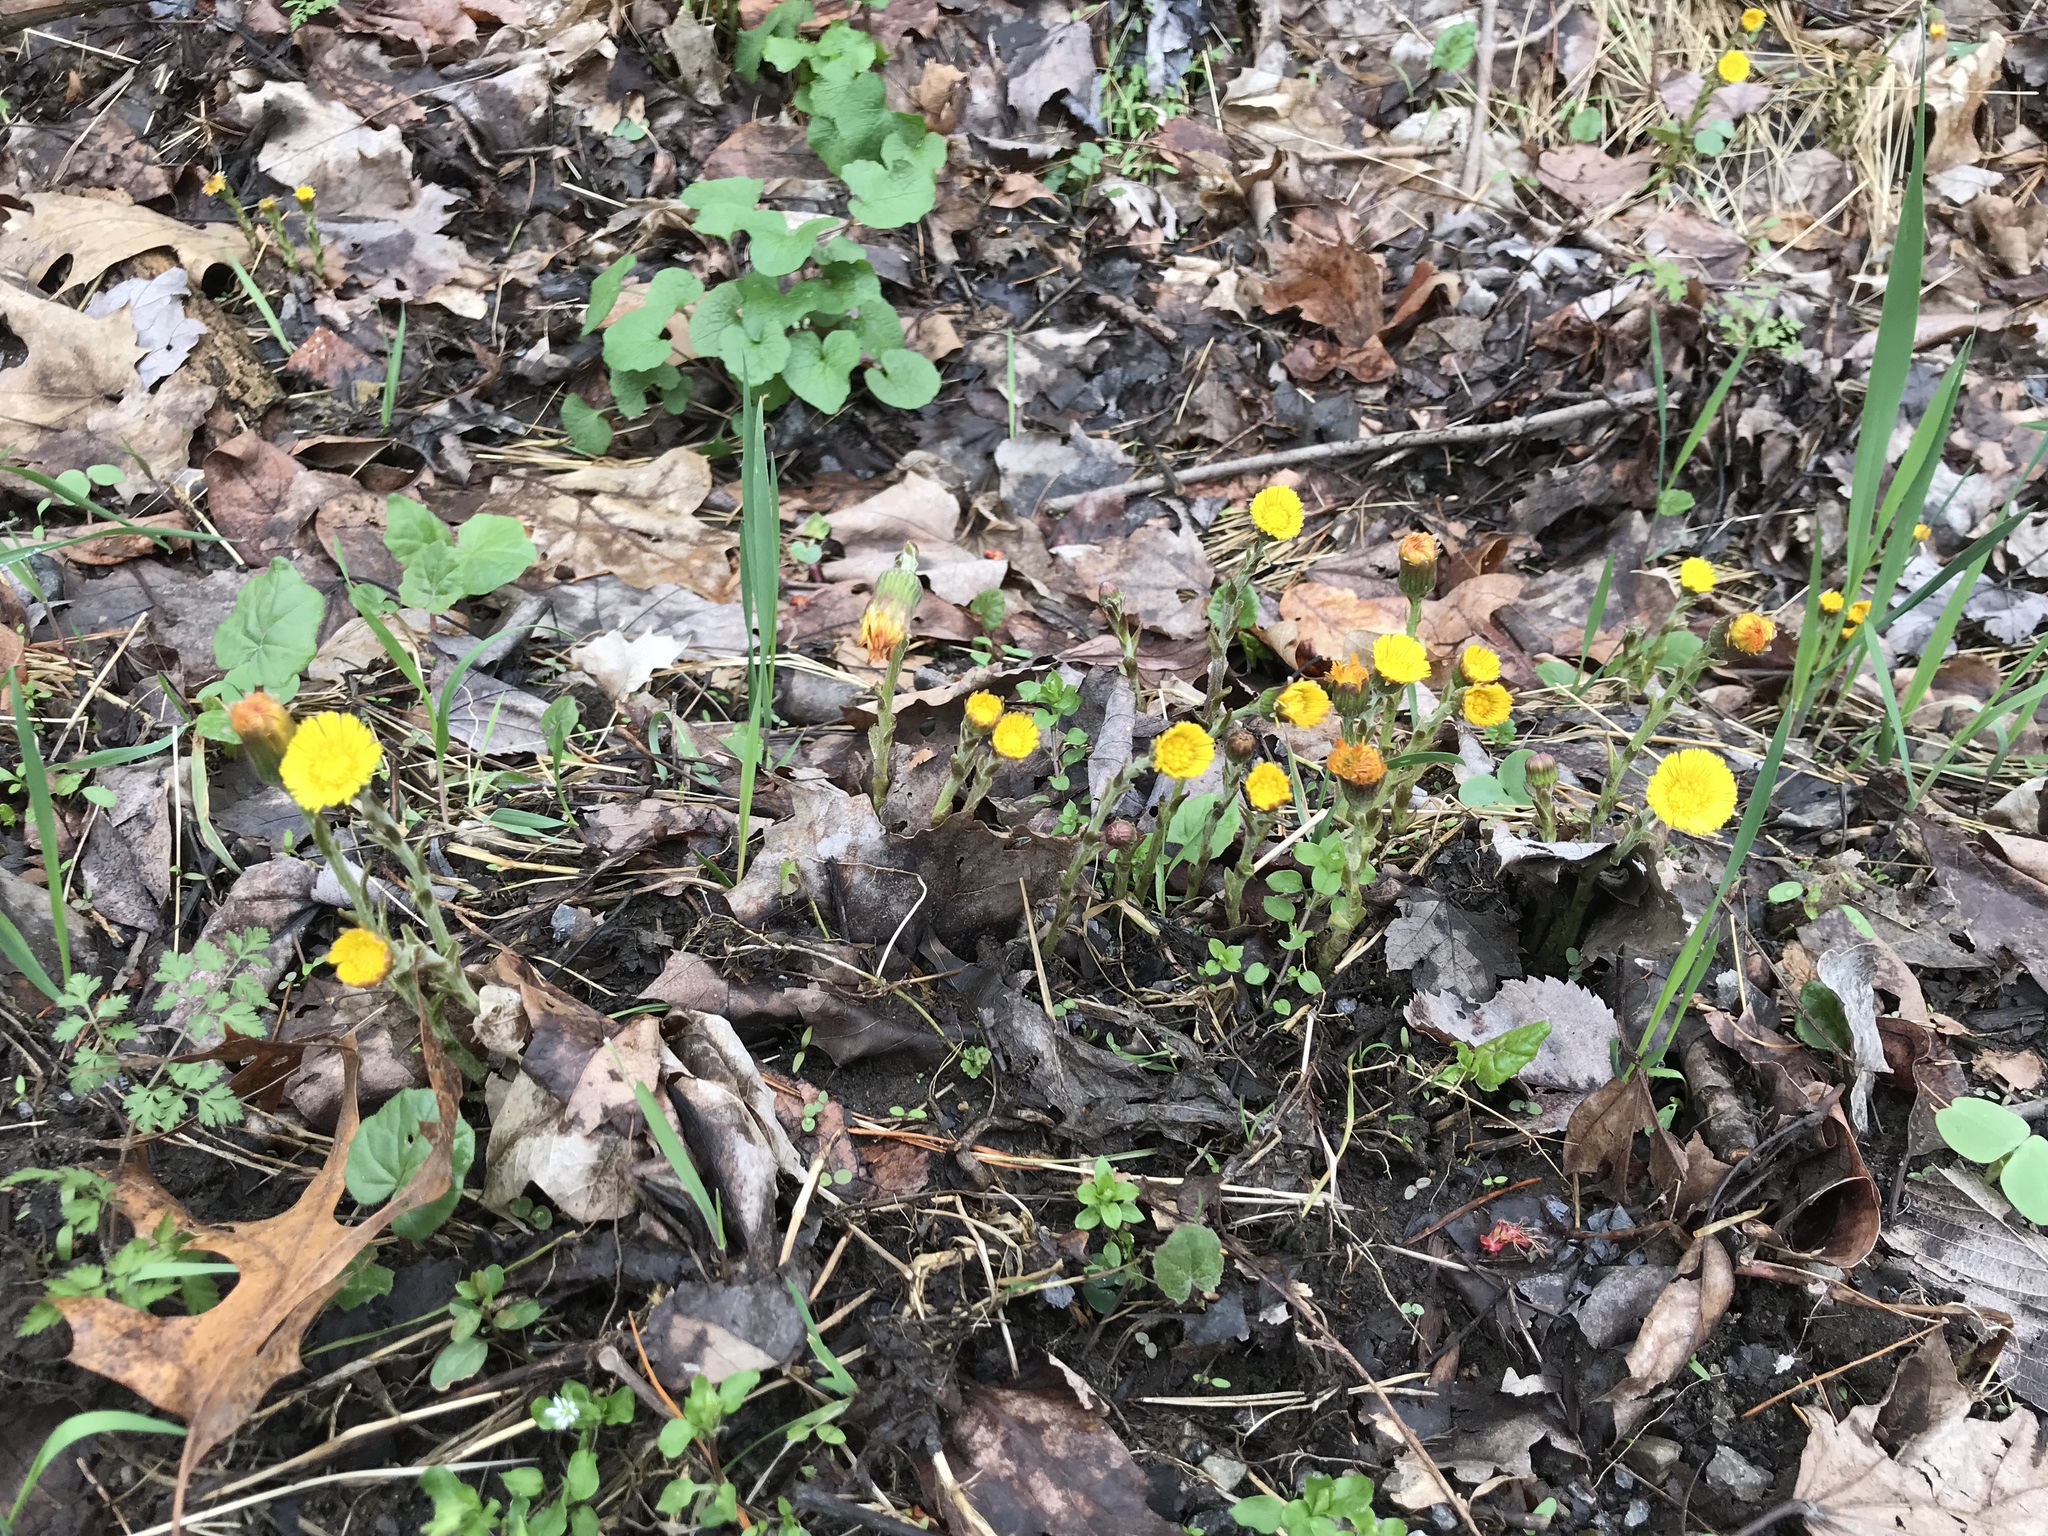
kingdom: Plantae
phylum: Tracheophyta
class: Magnoliopsida
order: Asterales
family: Asteraceae
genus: Tussilago
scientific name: Tussilago farfara
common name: Coltsfoot
